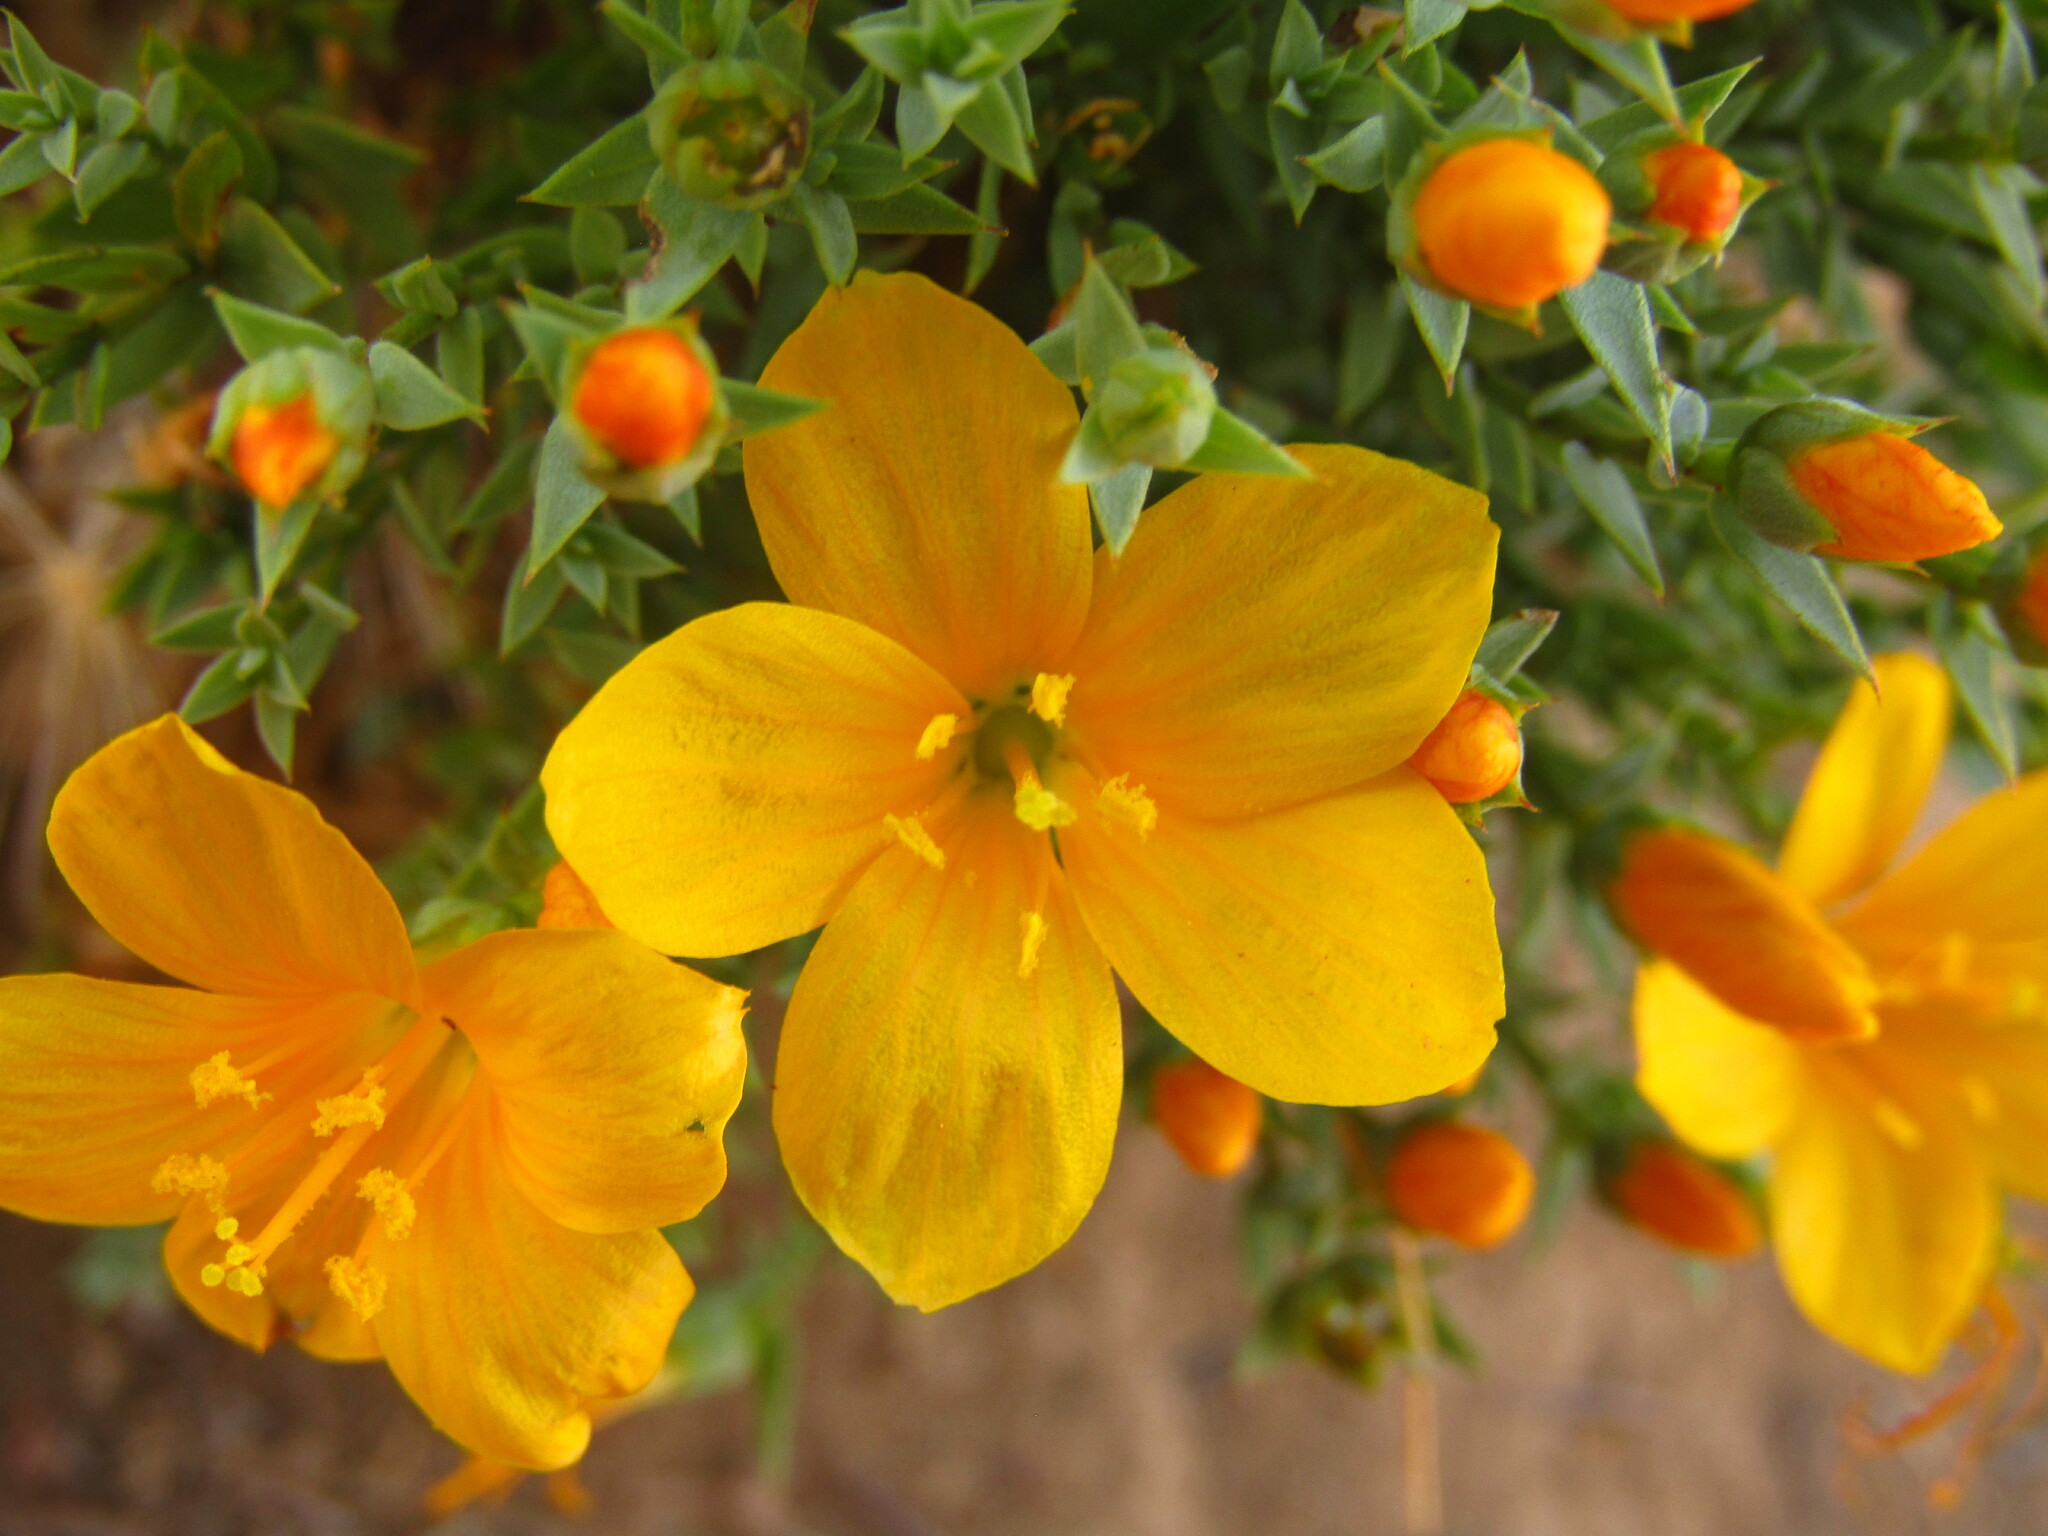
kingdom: Plantae
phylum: Tracheophyta
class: Magnoliopsida
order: Malpighiales
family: Linaceae
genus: Linum
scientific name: Linum macraei
